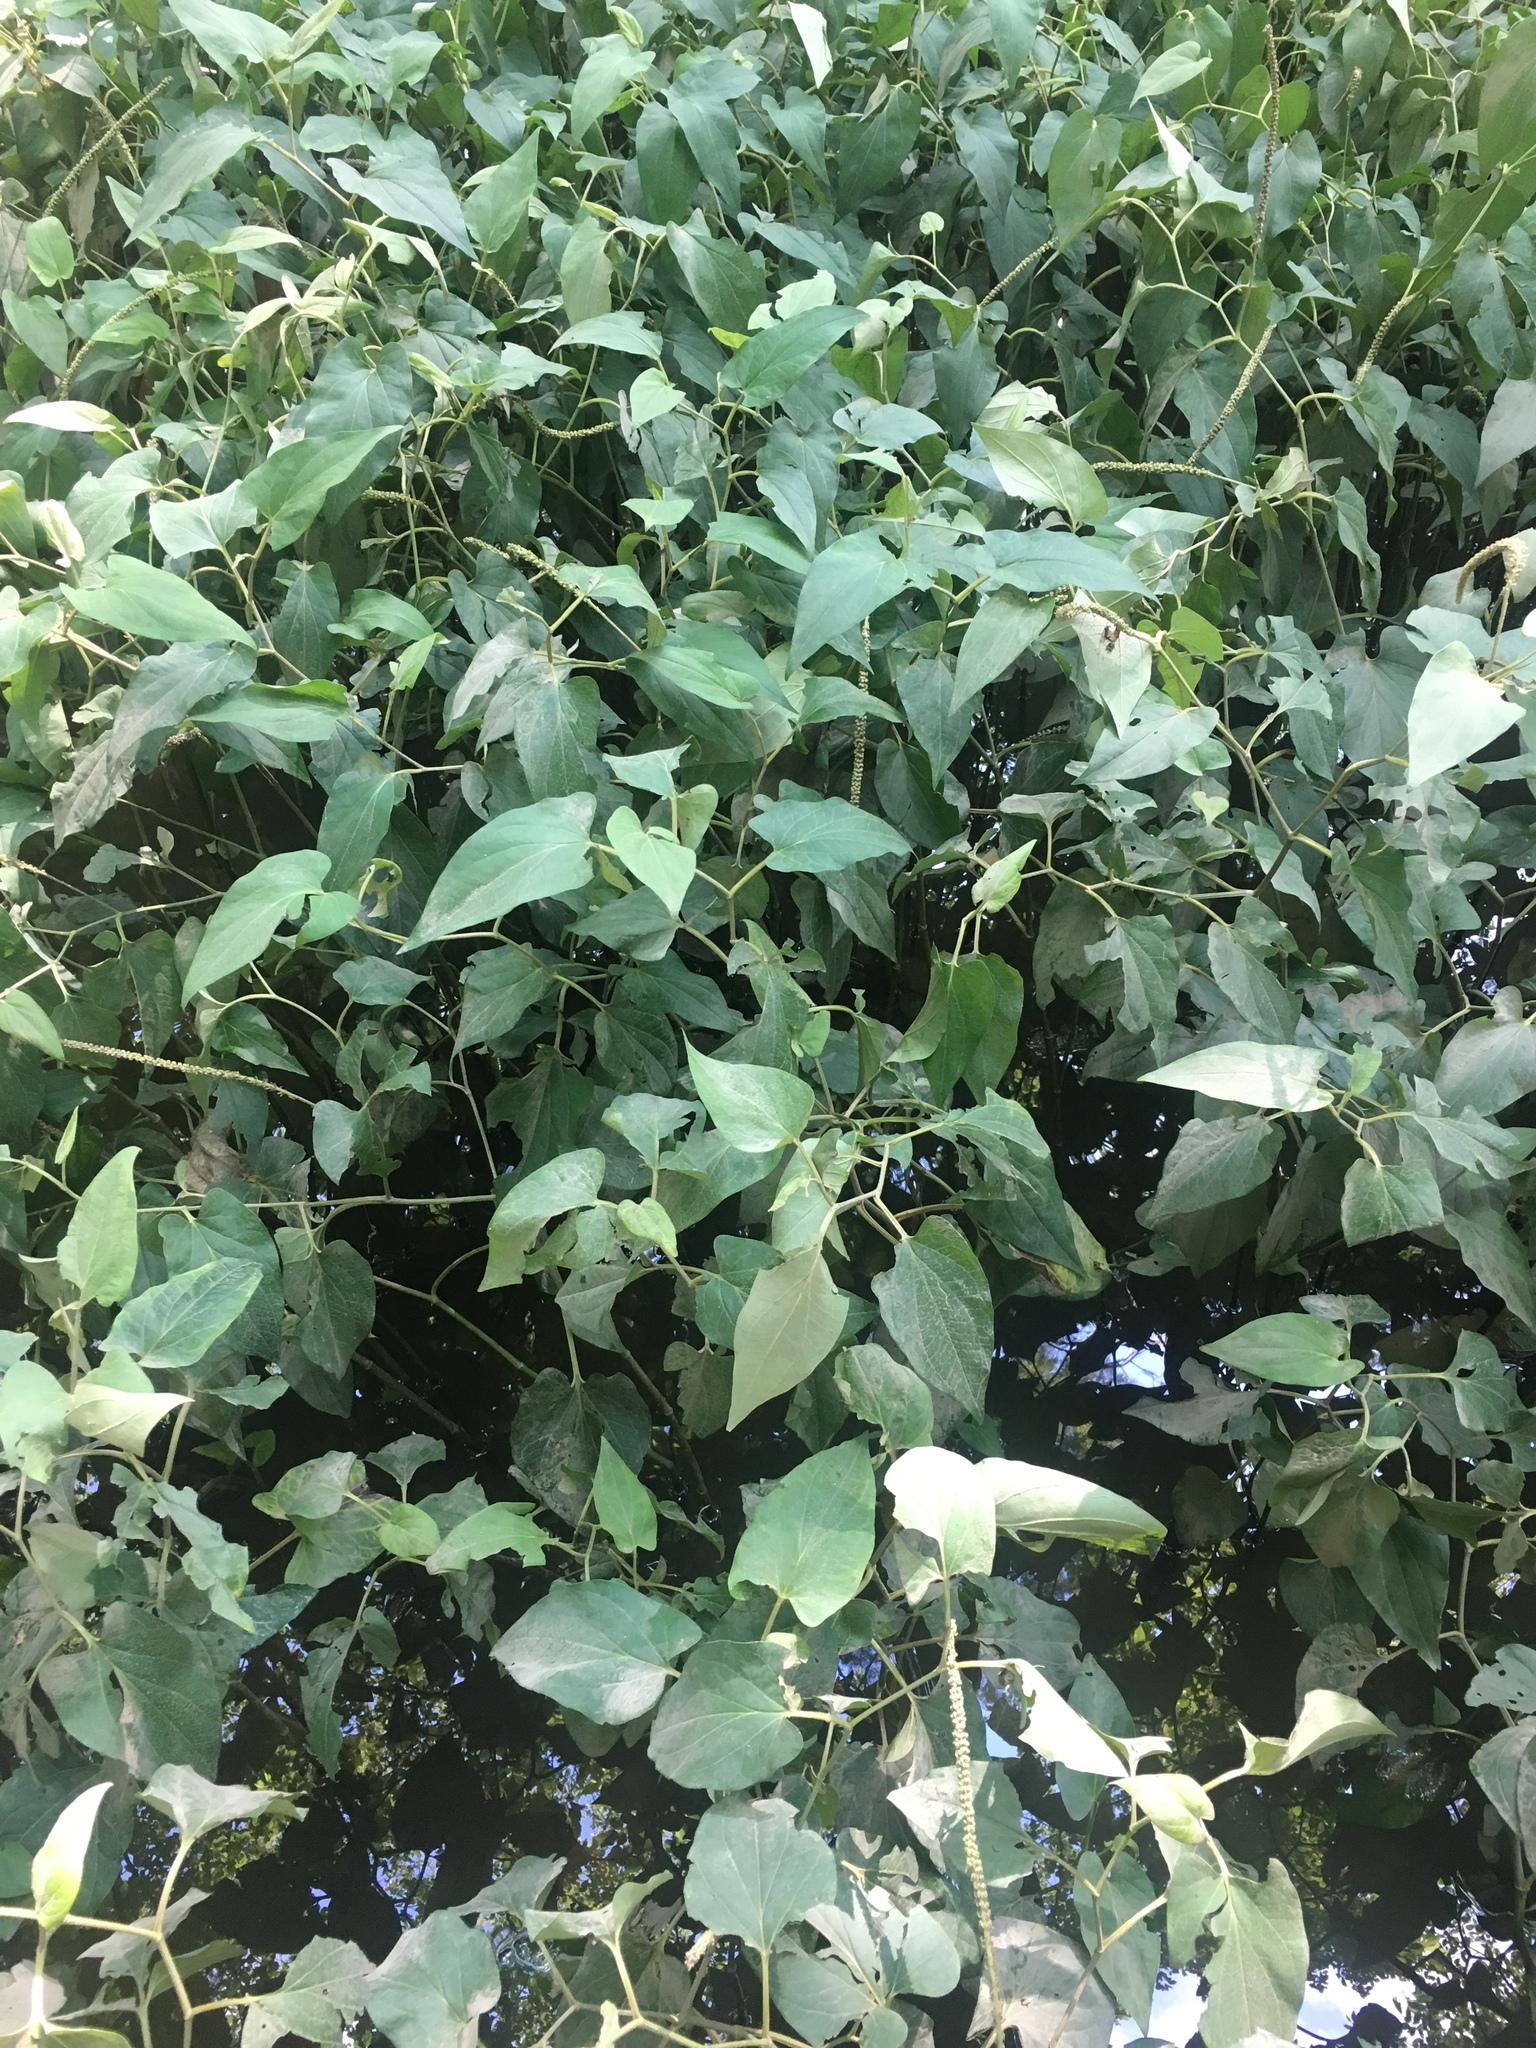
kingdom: Plantae
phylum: Tracheophyta
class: Magnoliopsida
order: Piperales
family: Saururaceae
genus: Saururus
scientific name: Saururus cernuus
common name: Lizard's-tail
